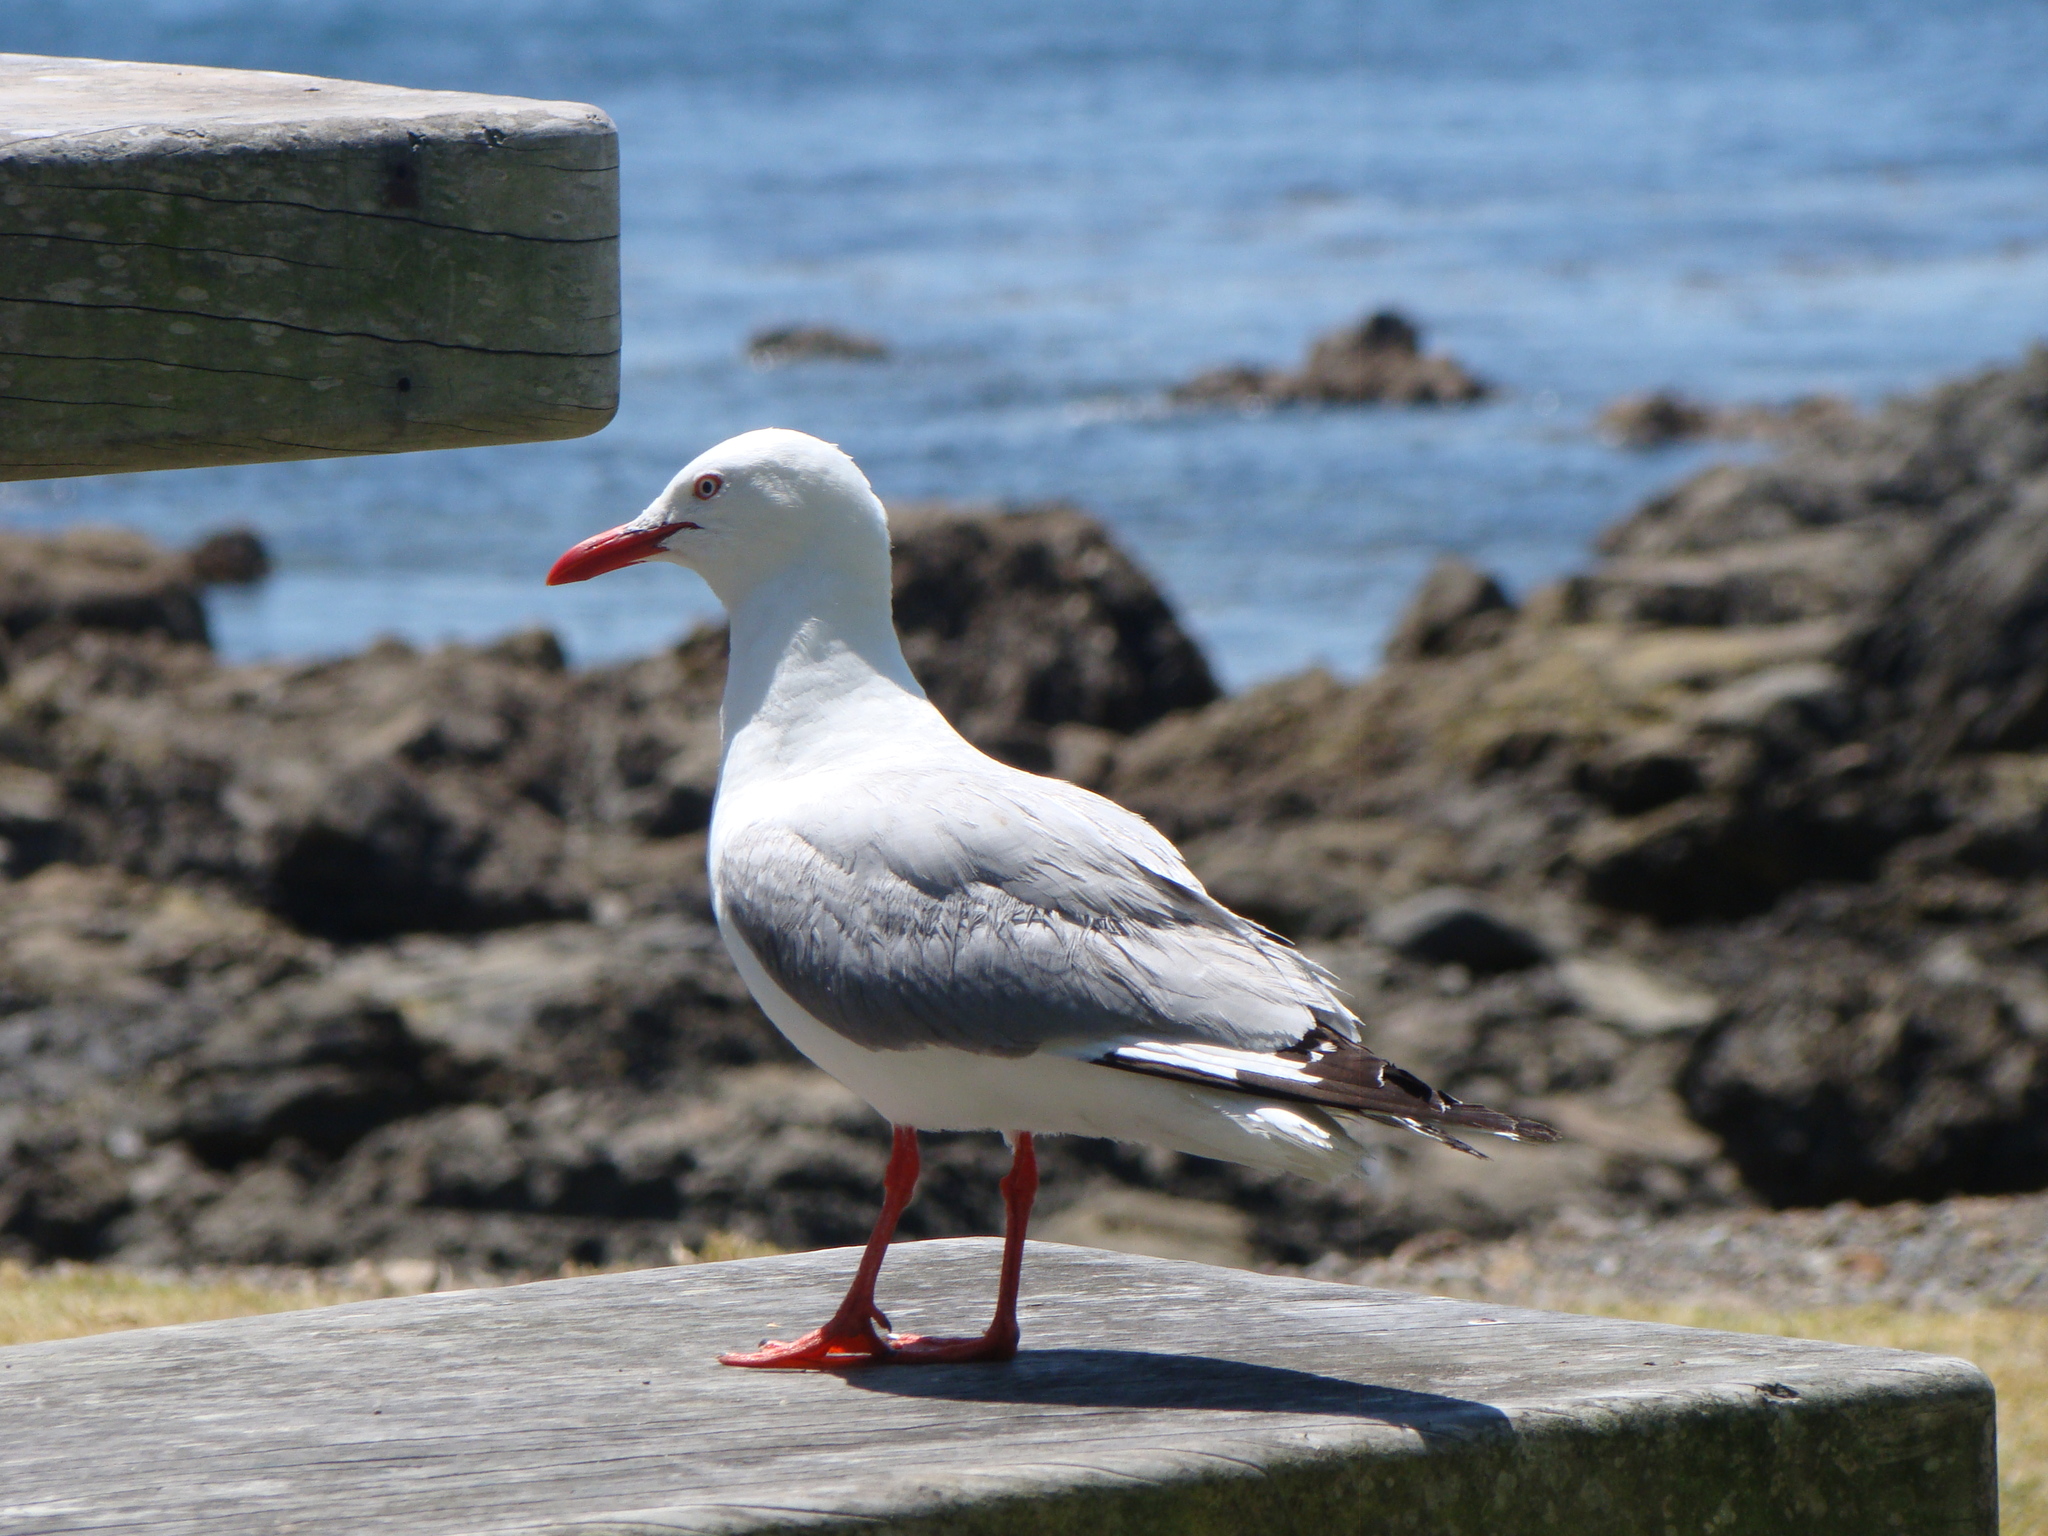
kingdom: Animalia
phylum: Chordata
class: Aves
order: Charadriiformes
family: Laridae
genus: Chroicocephalus
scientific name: Chroicocephalus novaehollandiae
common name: Silver gull
